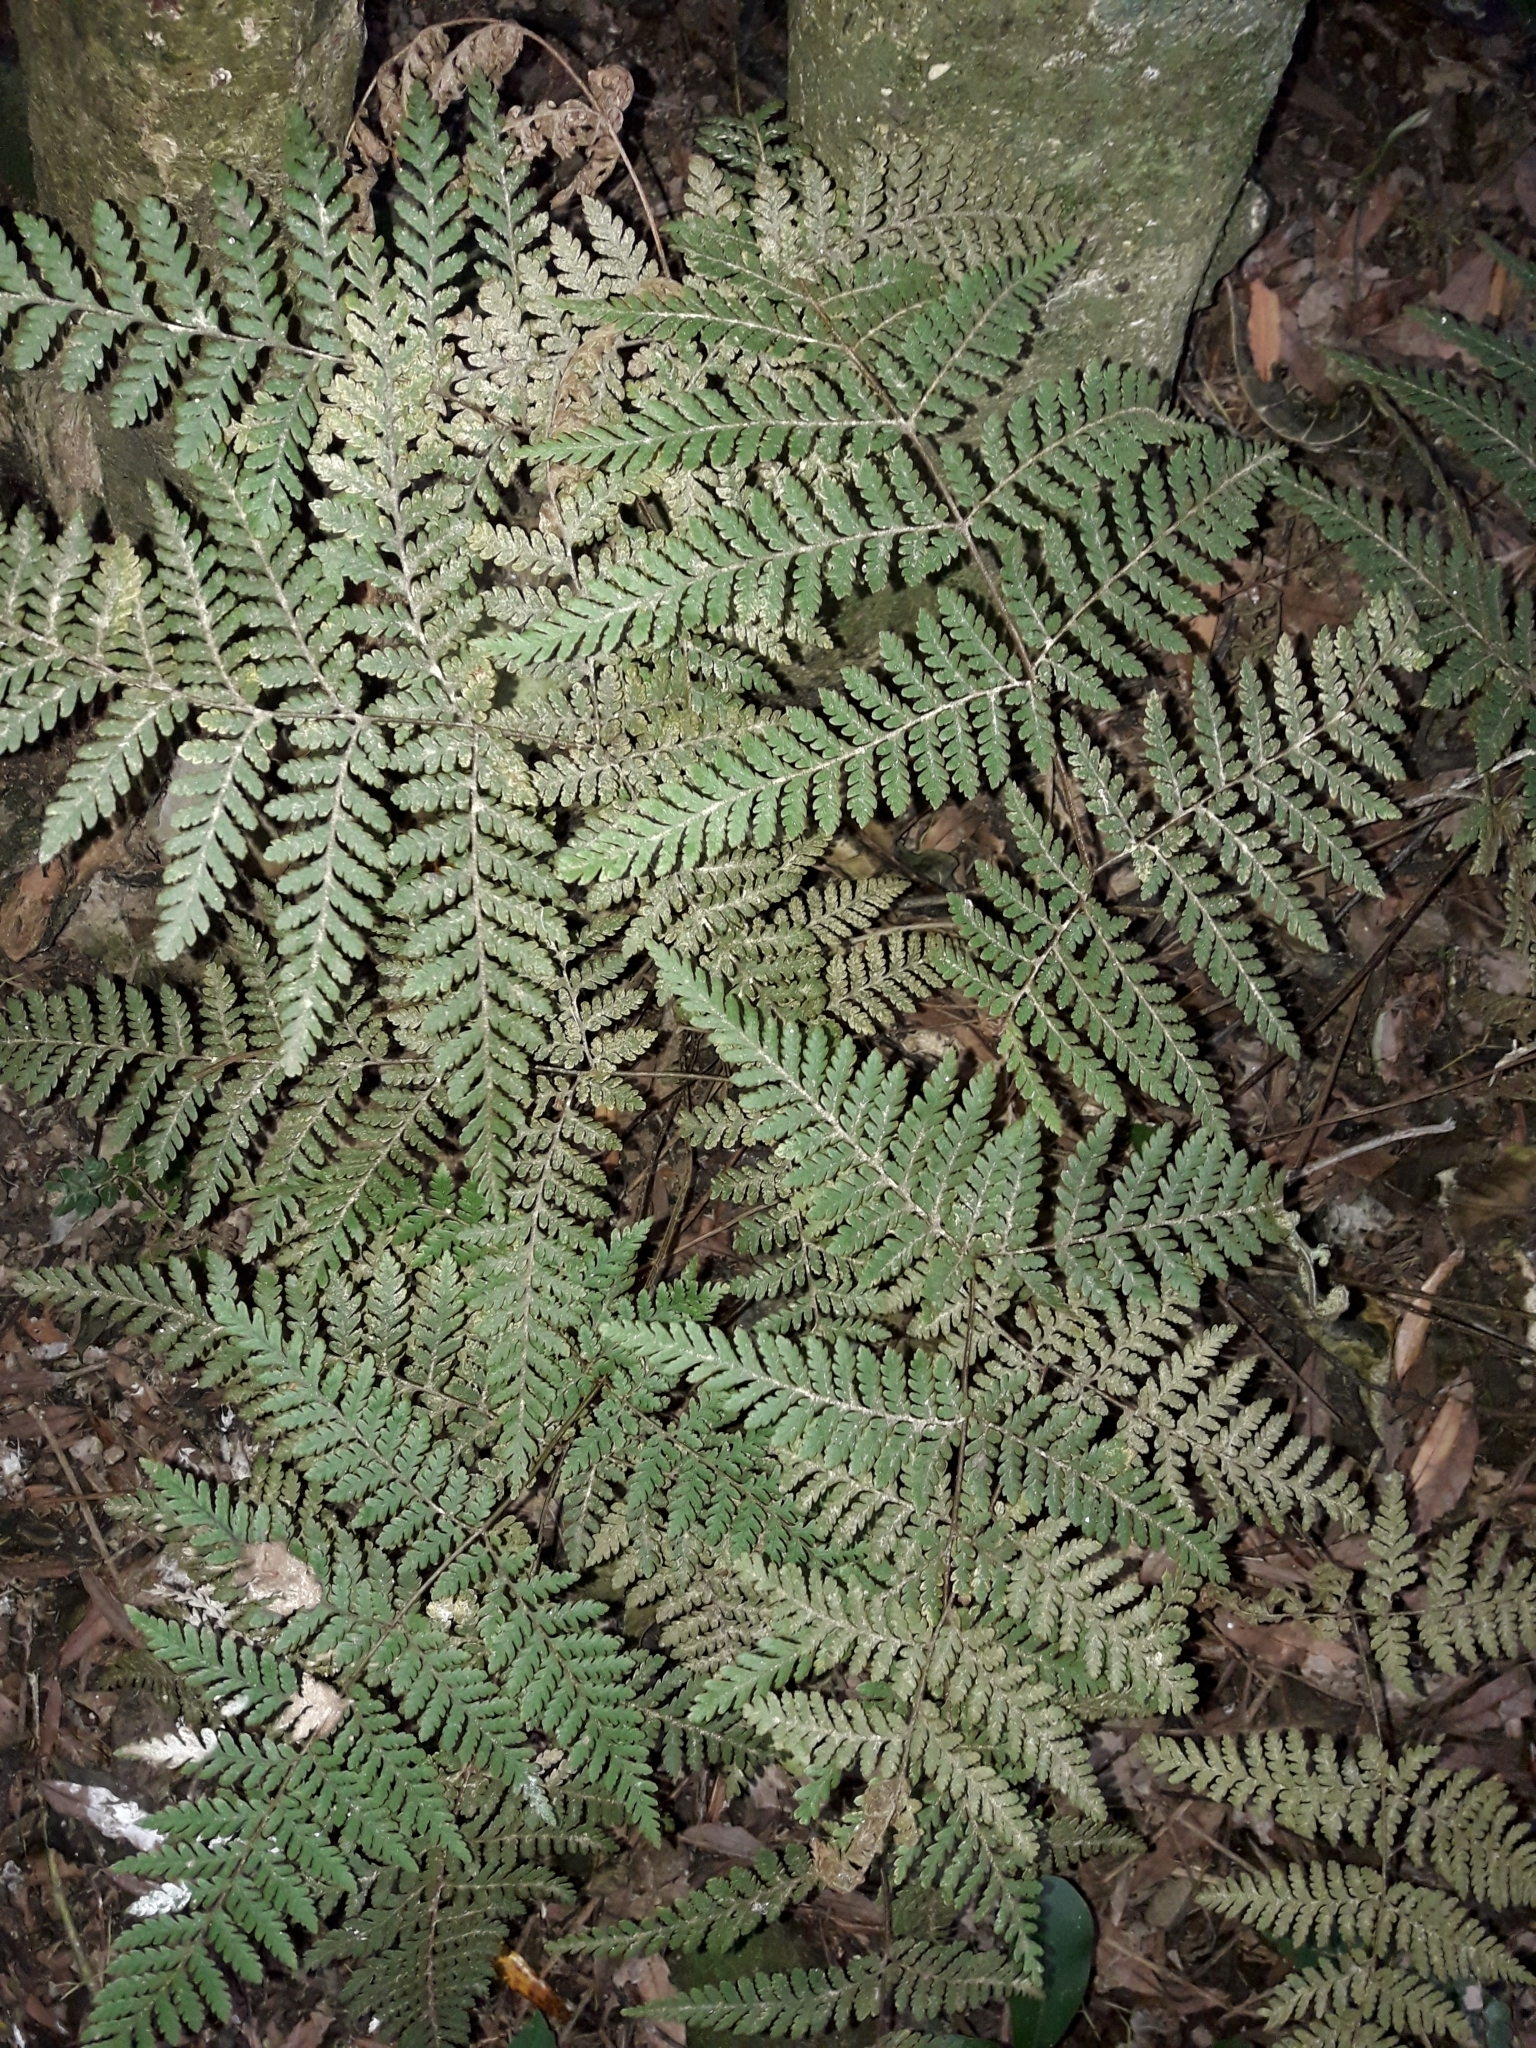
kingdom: Plantae
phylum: Tracheophyta
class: Polypodiopsida
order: Polypodiales
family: Dryopteridaceae
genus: Lastreopsis
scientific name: Lastreopsis velutina
